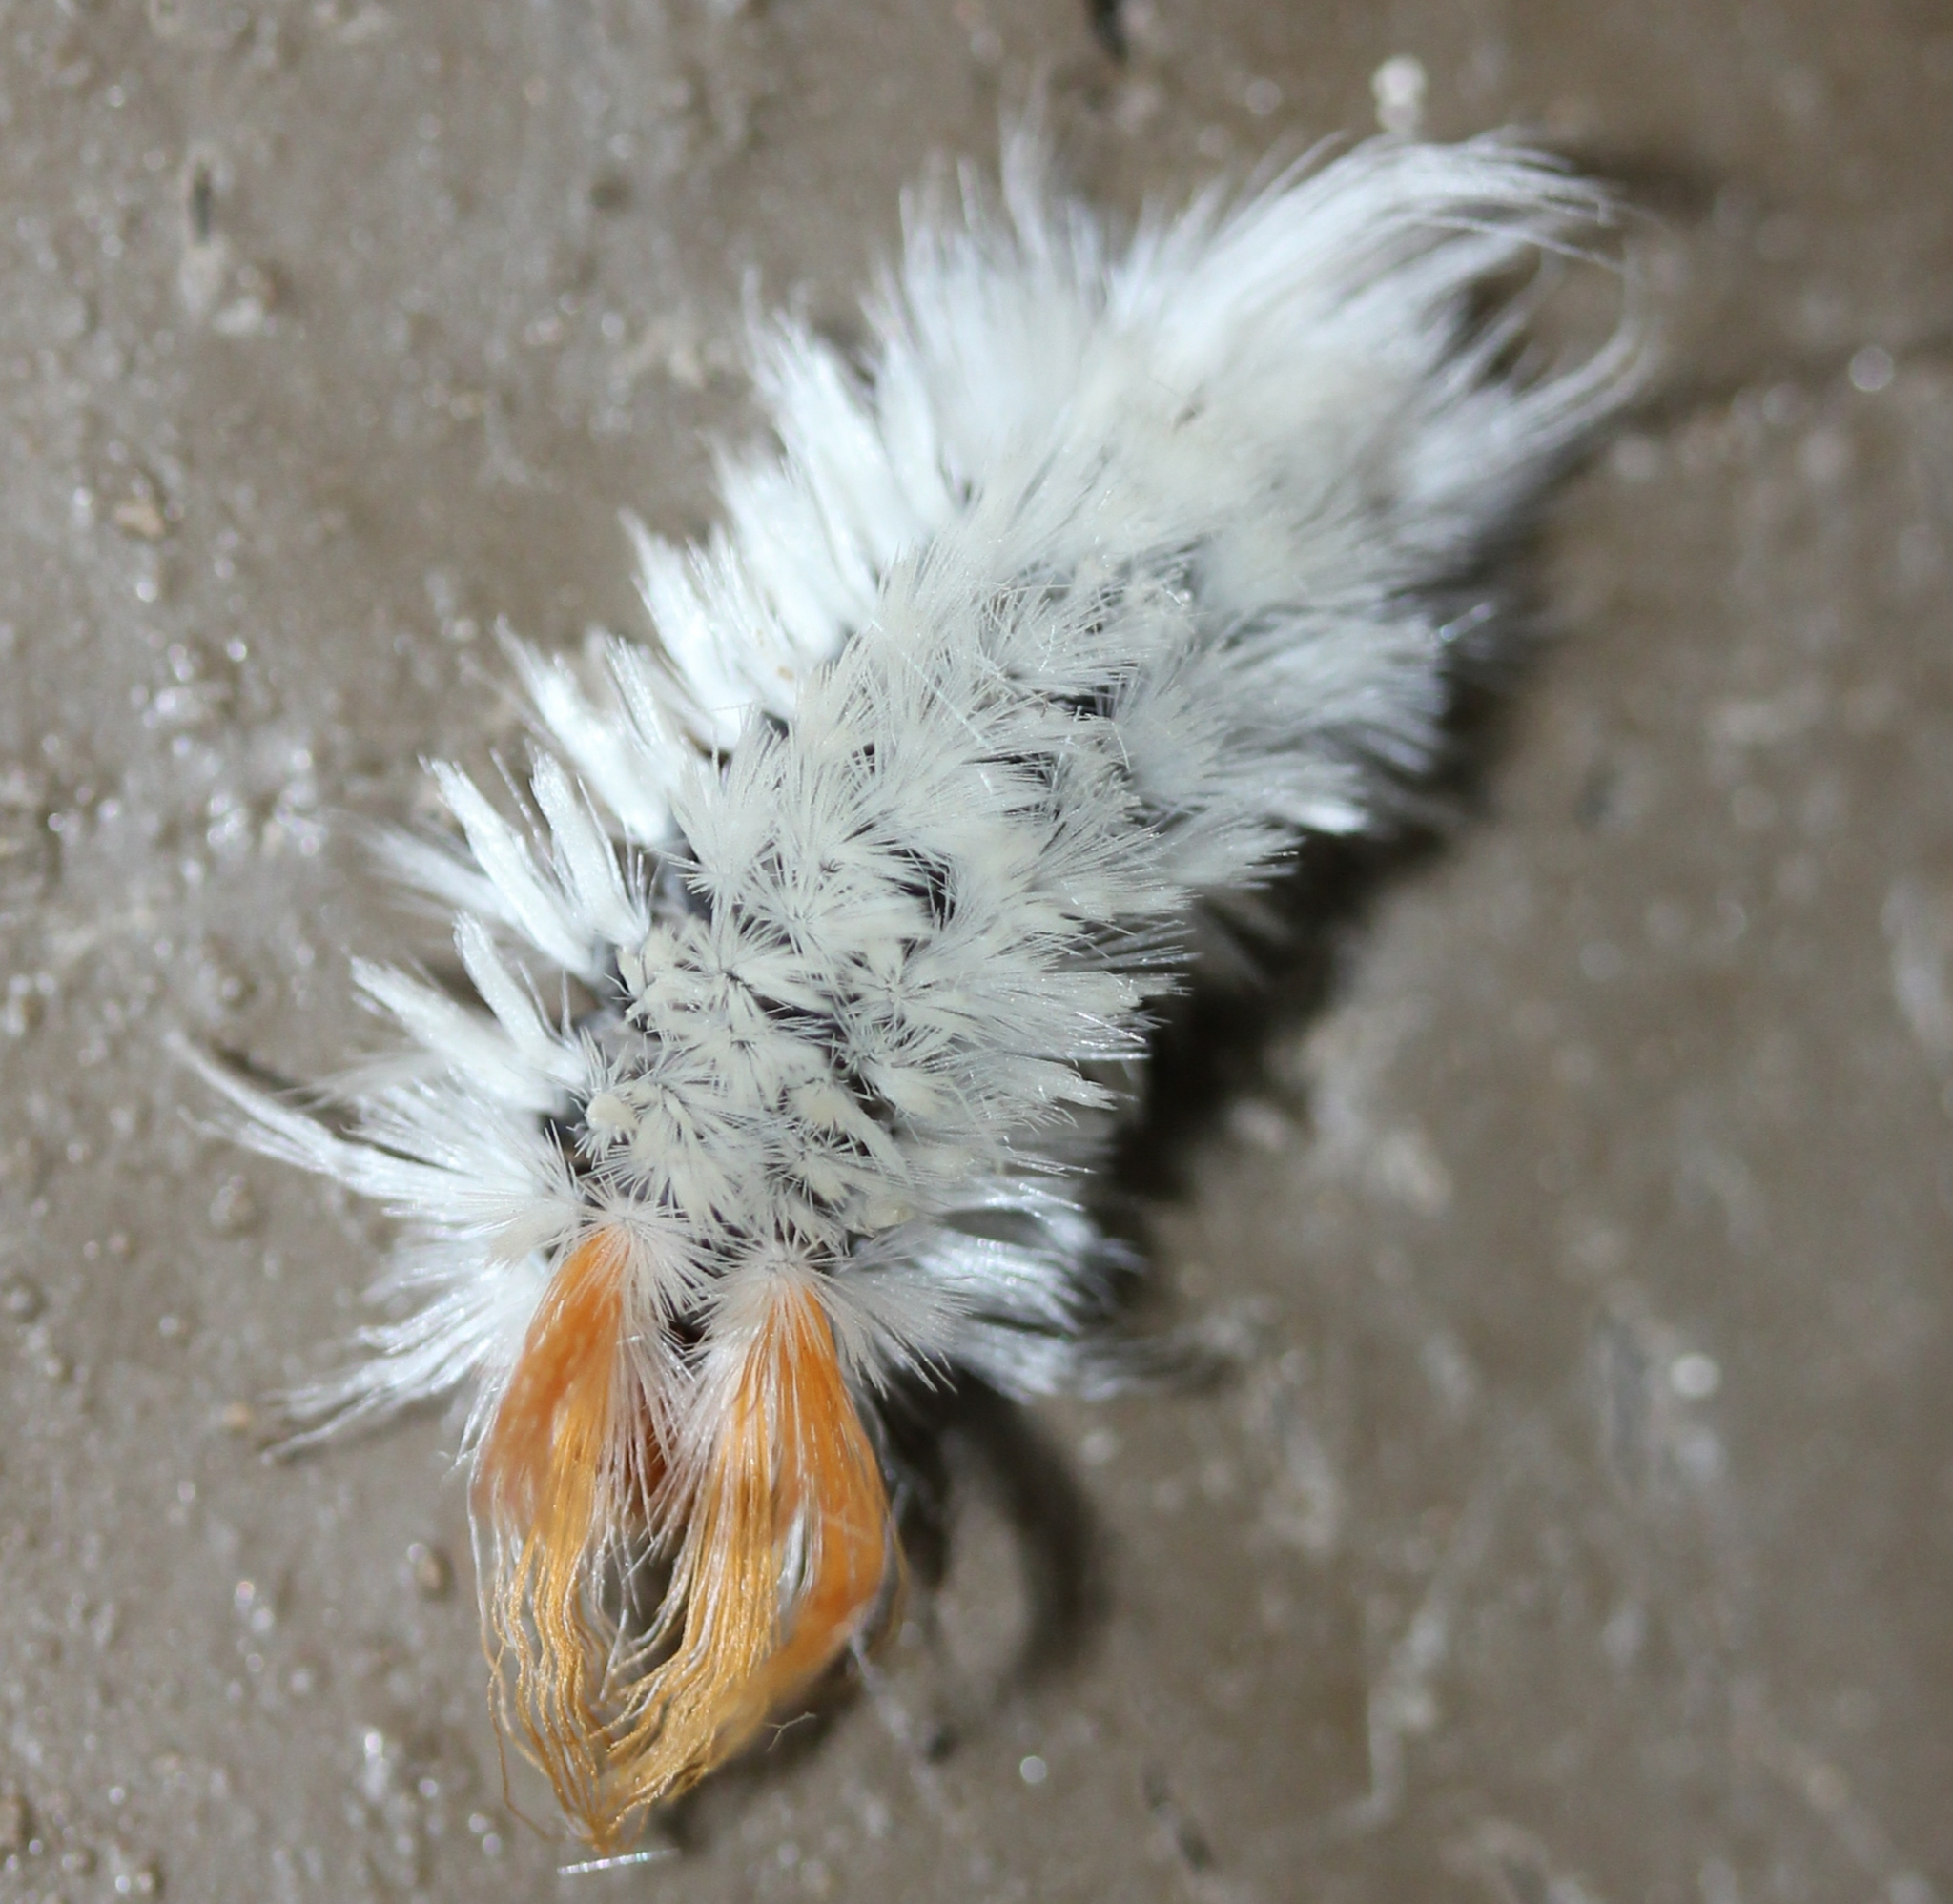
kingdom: Animalia
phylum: Arthropoda
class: Insecta
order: Lepidoptera
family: Erebidae
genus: Halysidota
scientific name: Halysidota harrisii
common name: Sycamore tussock moth
